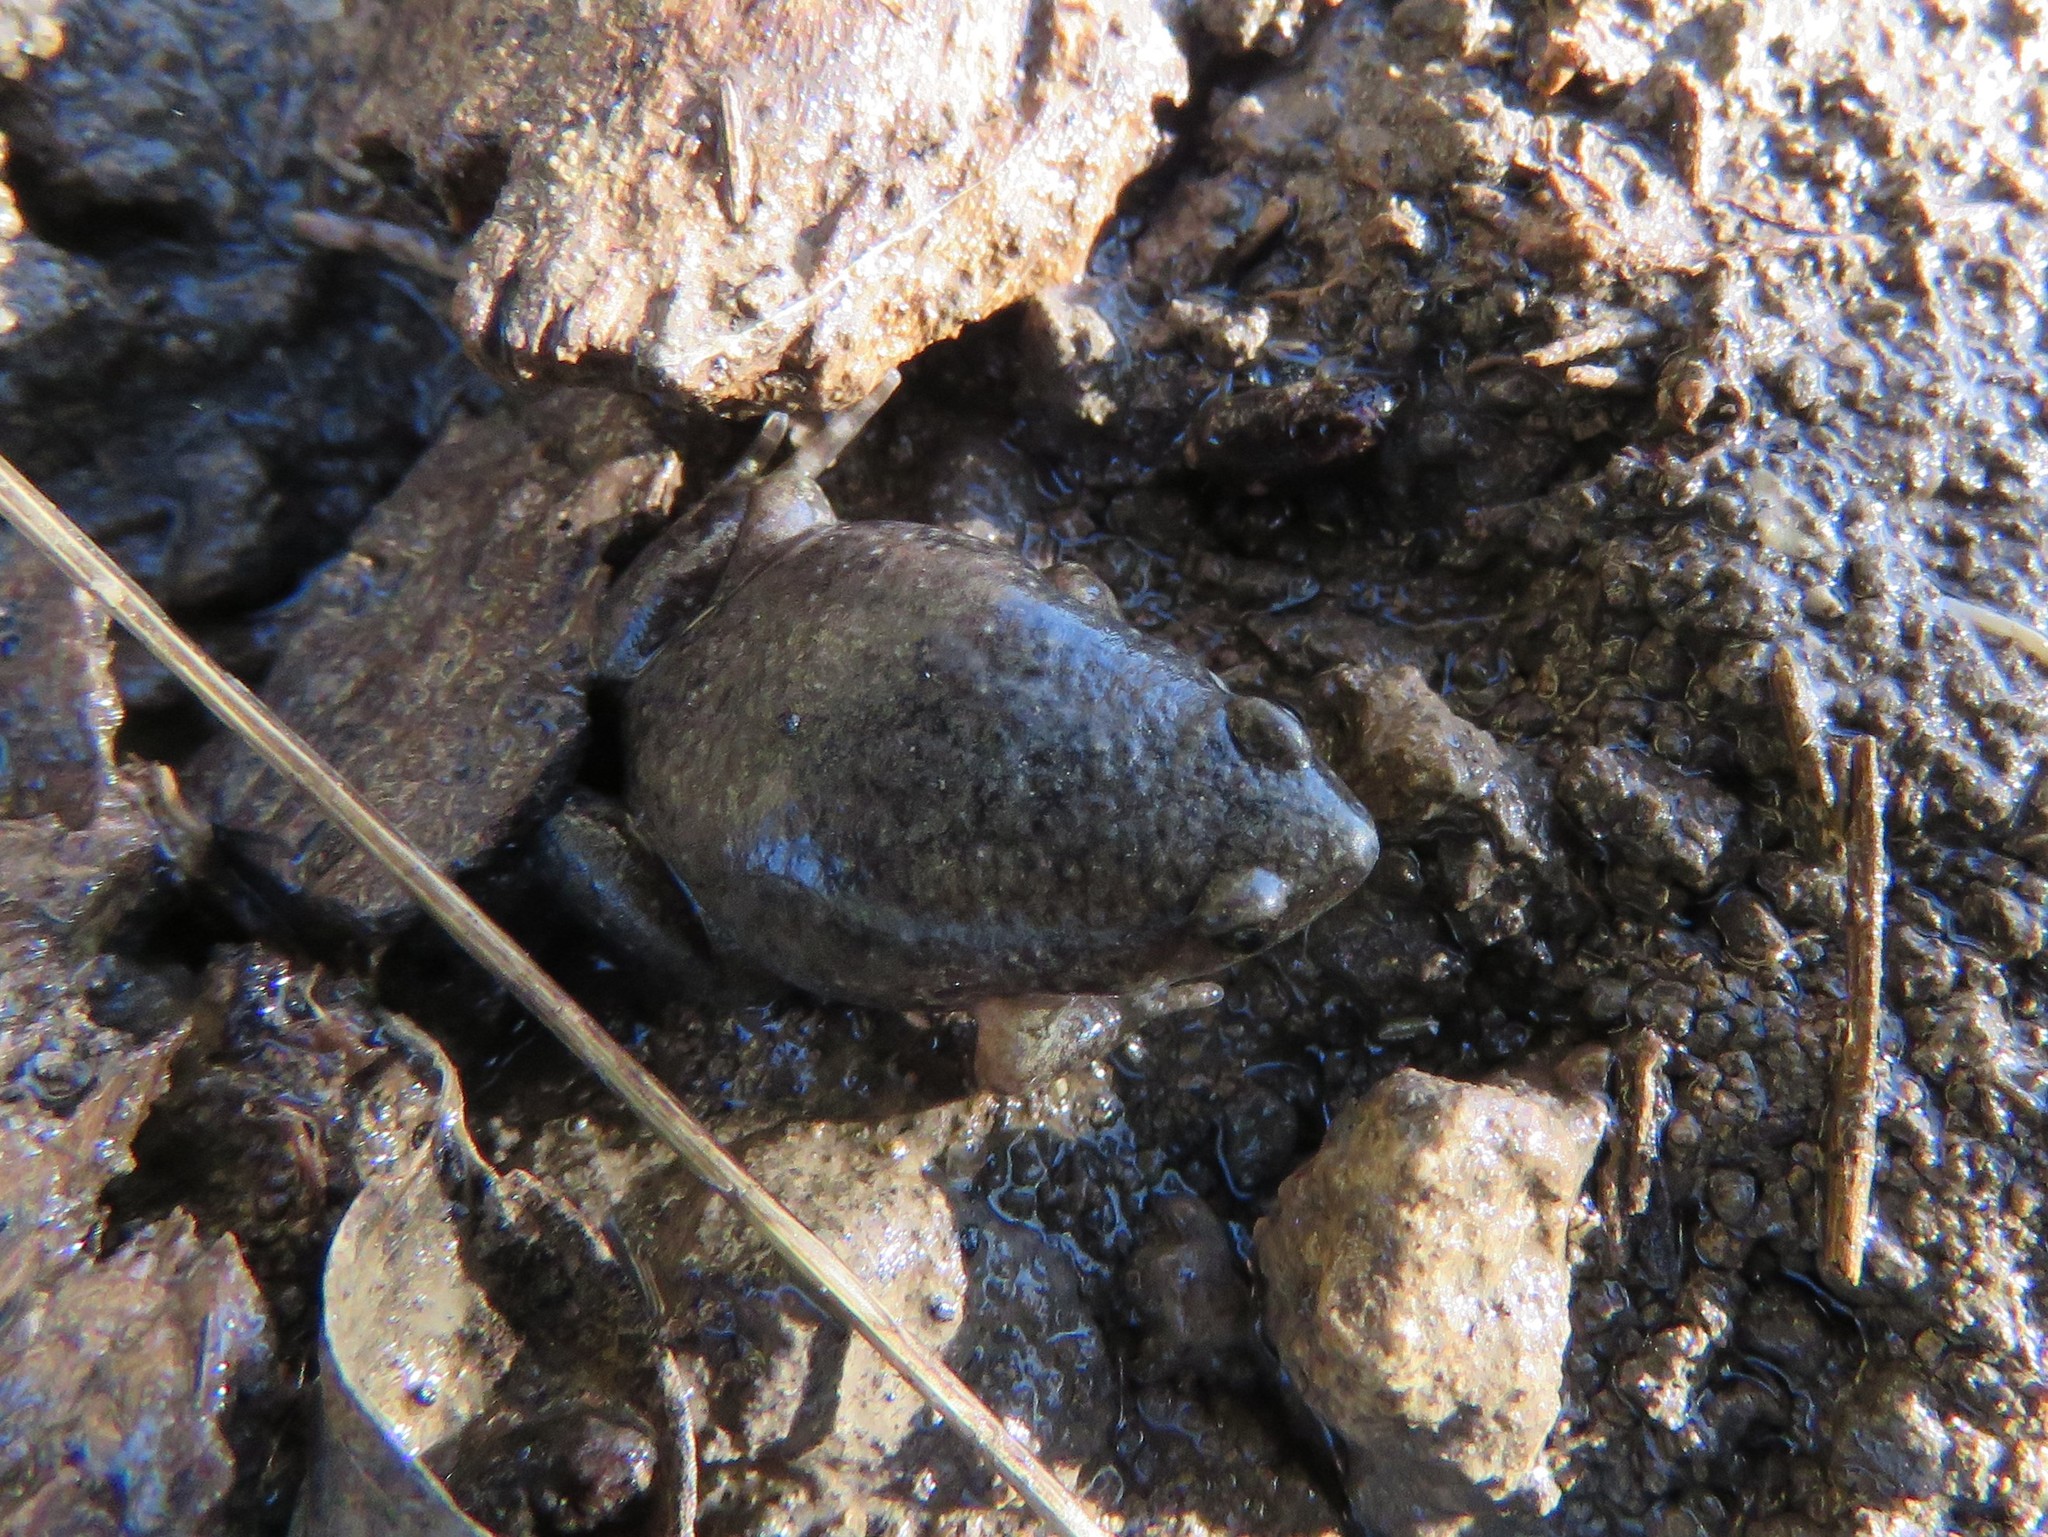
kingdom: Animalia
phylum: Chordata
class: Amphibia
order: Anura
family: Microhylidae
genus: Gastrophryne
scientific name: Gastrophryne olivacea
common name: Great plains narrow-mouthed toad
